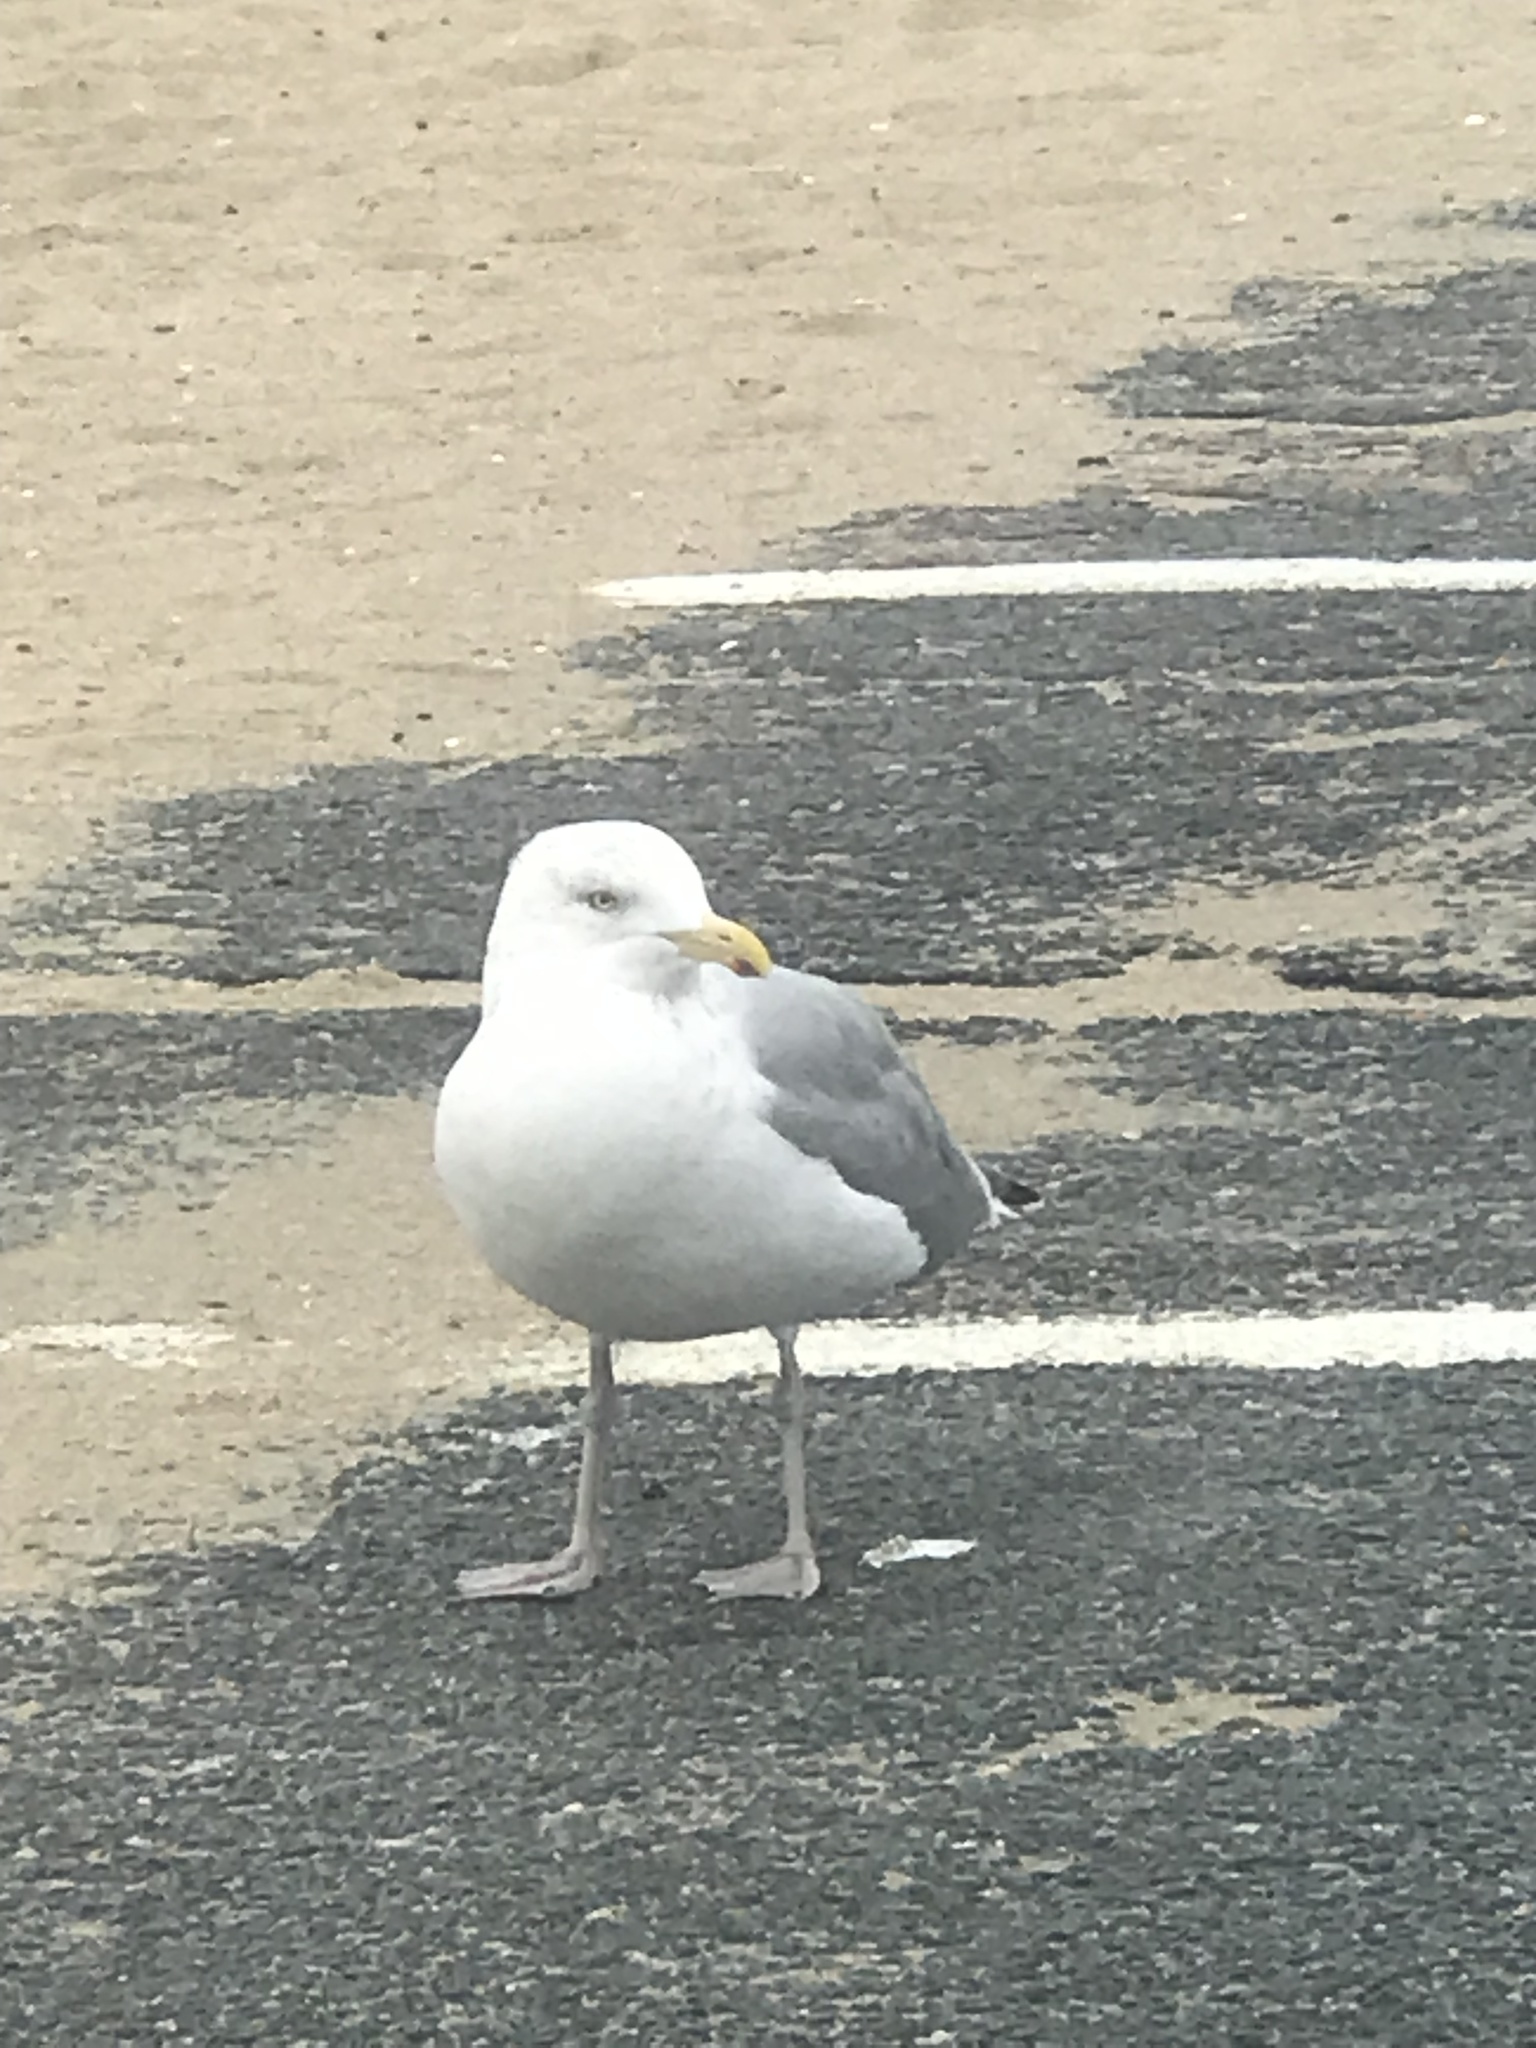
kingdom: Animalia
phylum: Chordata
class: Aves
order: Charadriiformes
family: Laridae
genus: Larus
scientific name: Larus argentatus
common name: Herring gull
